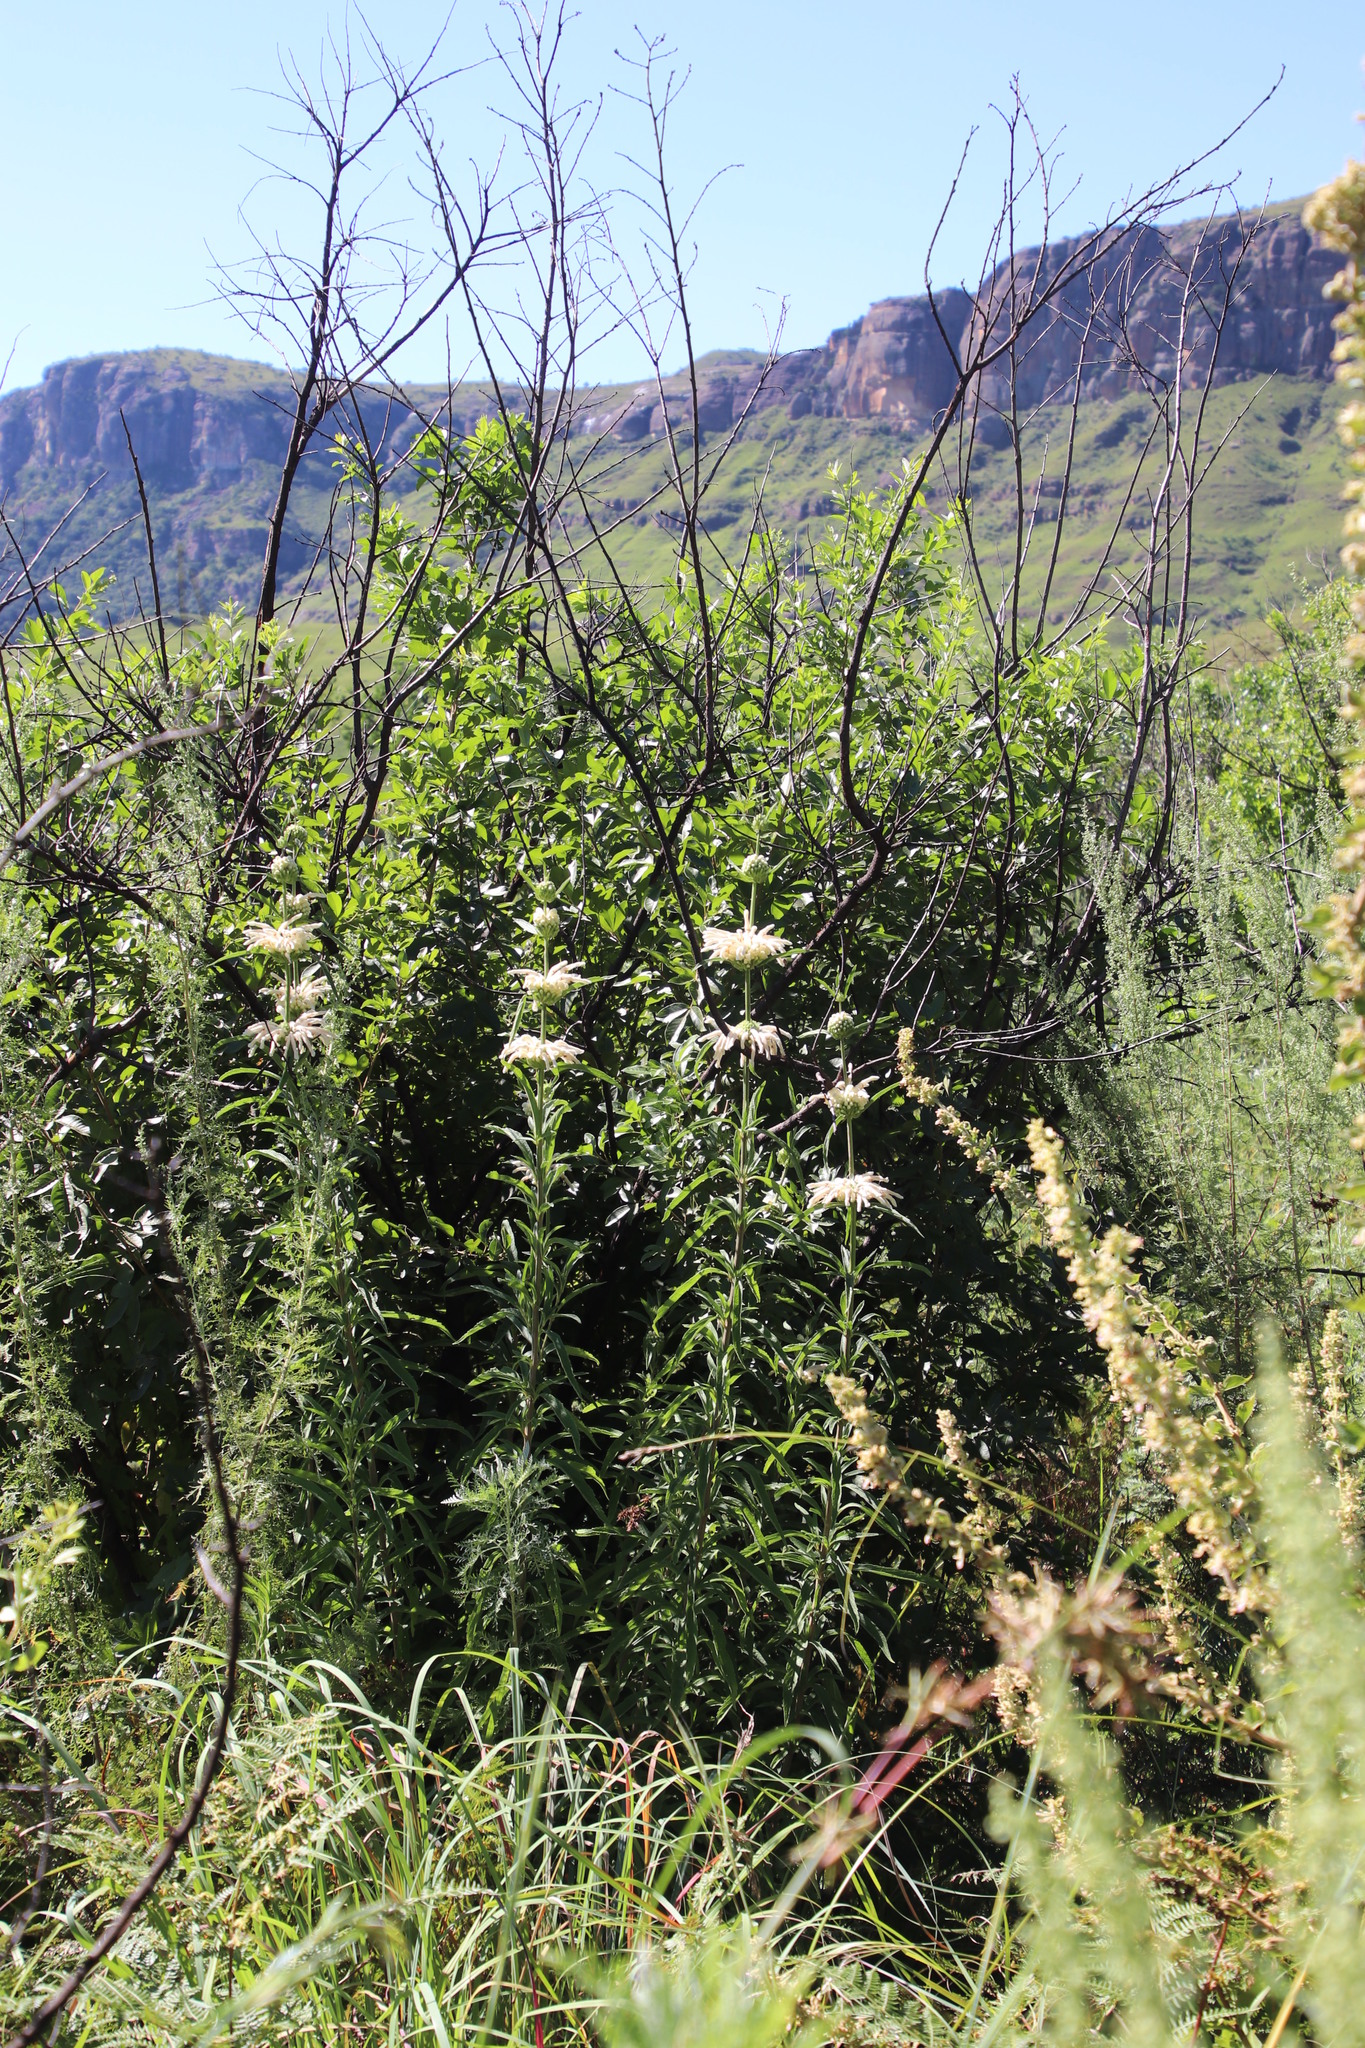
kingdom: Plantae
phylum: Tracheophyta
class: Magnoliopsida
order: Lamiales
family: Lamiaceae
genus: Leonotis
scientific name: Leonotis leonurus
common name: Lion's ear
